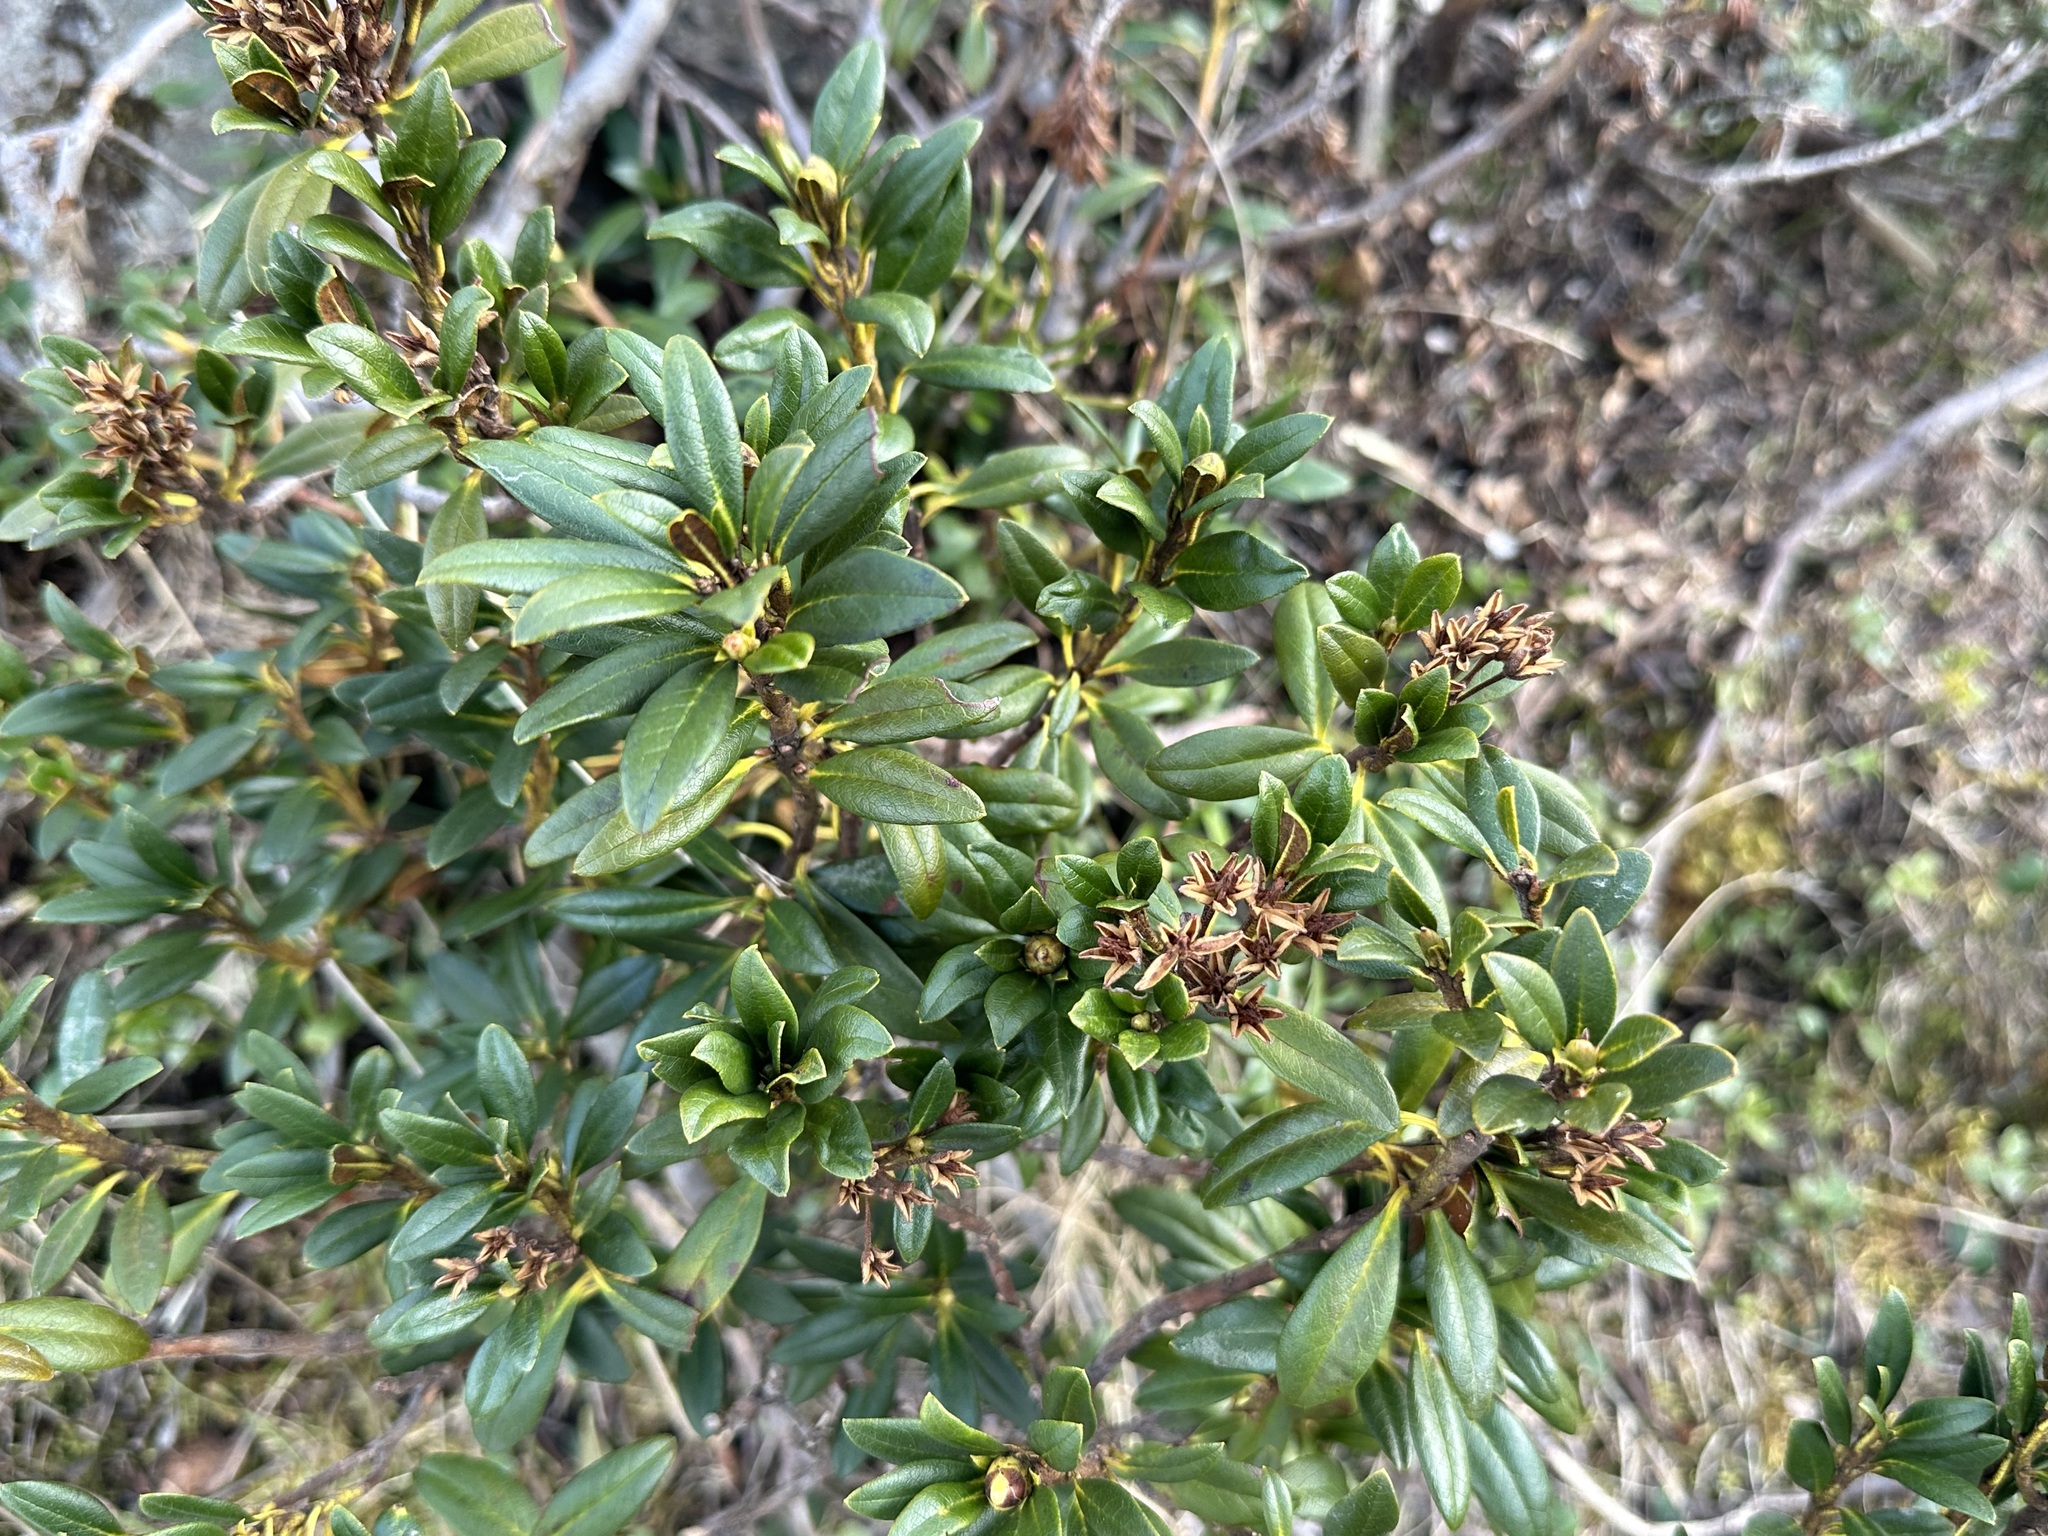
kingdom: Plantae
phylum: Tracheophyta
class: Magnoliopsida
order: Ericales
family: Ericaceae
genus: Rhododendron
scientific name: Rhododendron ferrugineum
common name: Alpenrose
